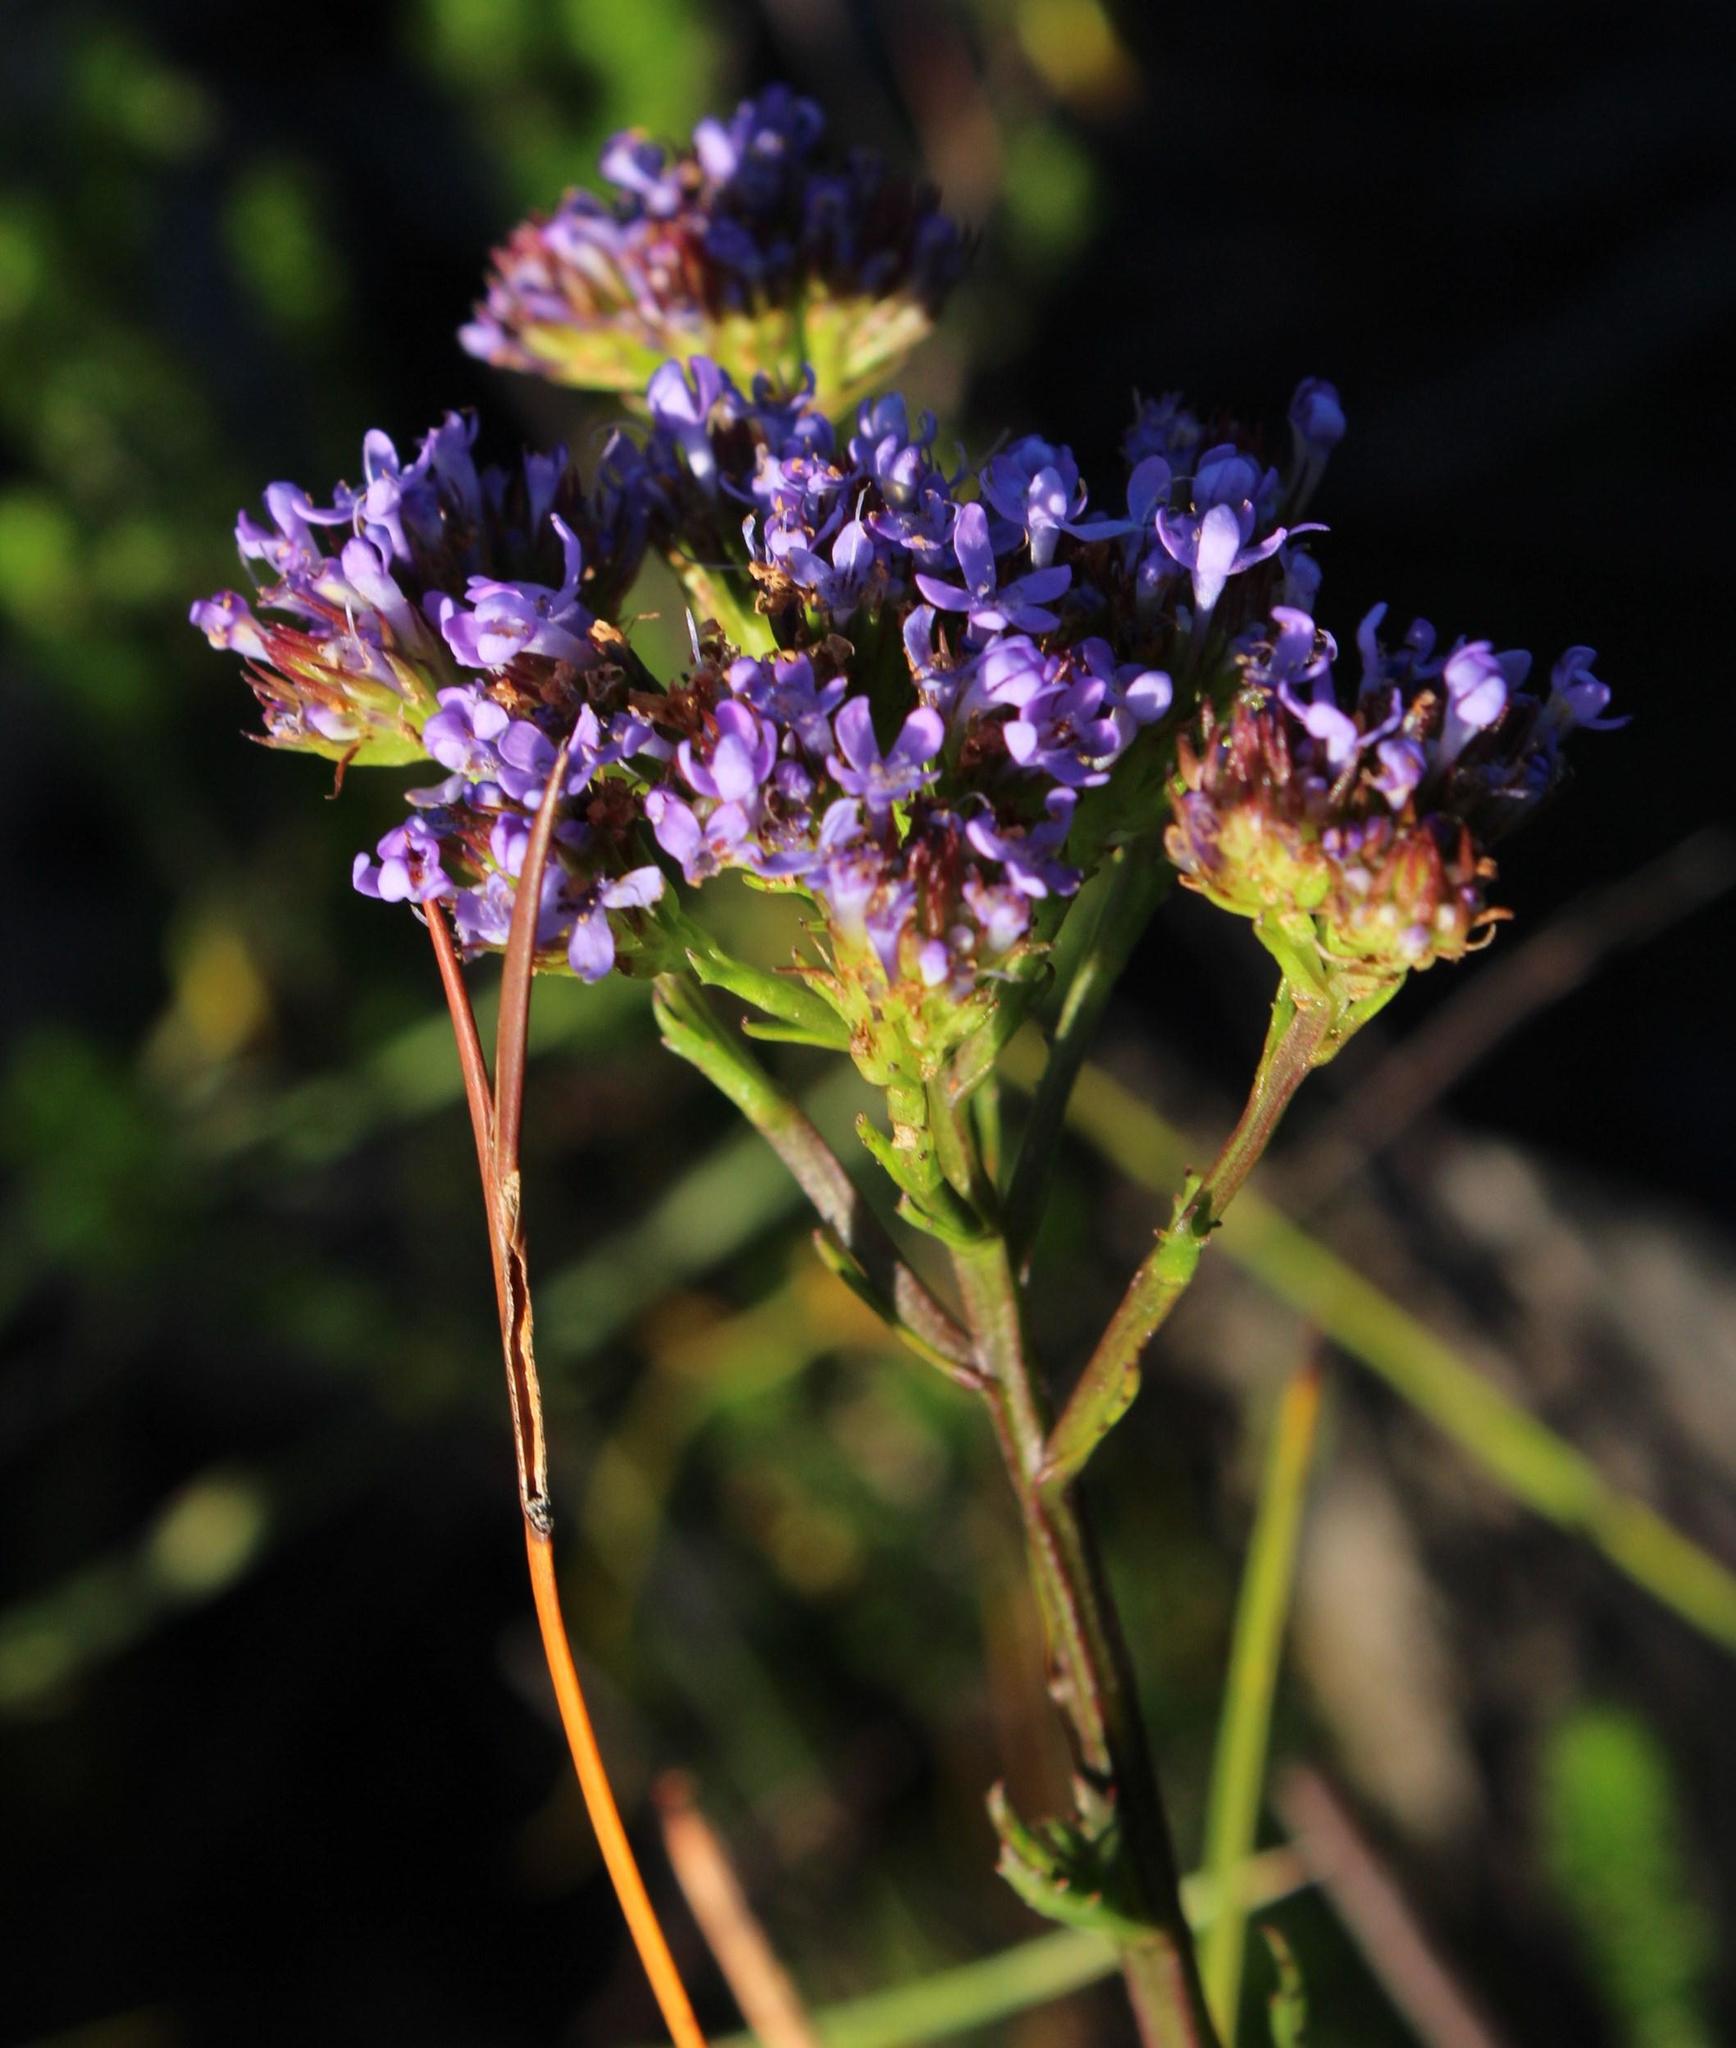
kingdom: Plantae
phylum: Tracheophyta
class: Magnoliopsida
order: Lamiales
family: Scrophulariaceae
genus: Pseudoselago
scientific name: Pseudoselago ascendens
